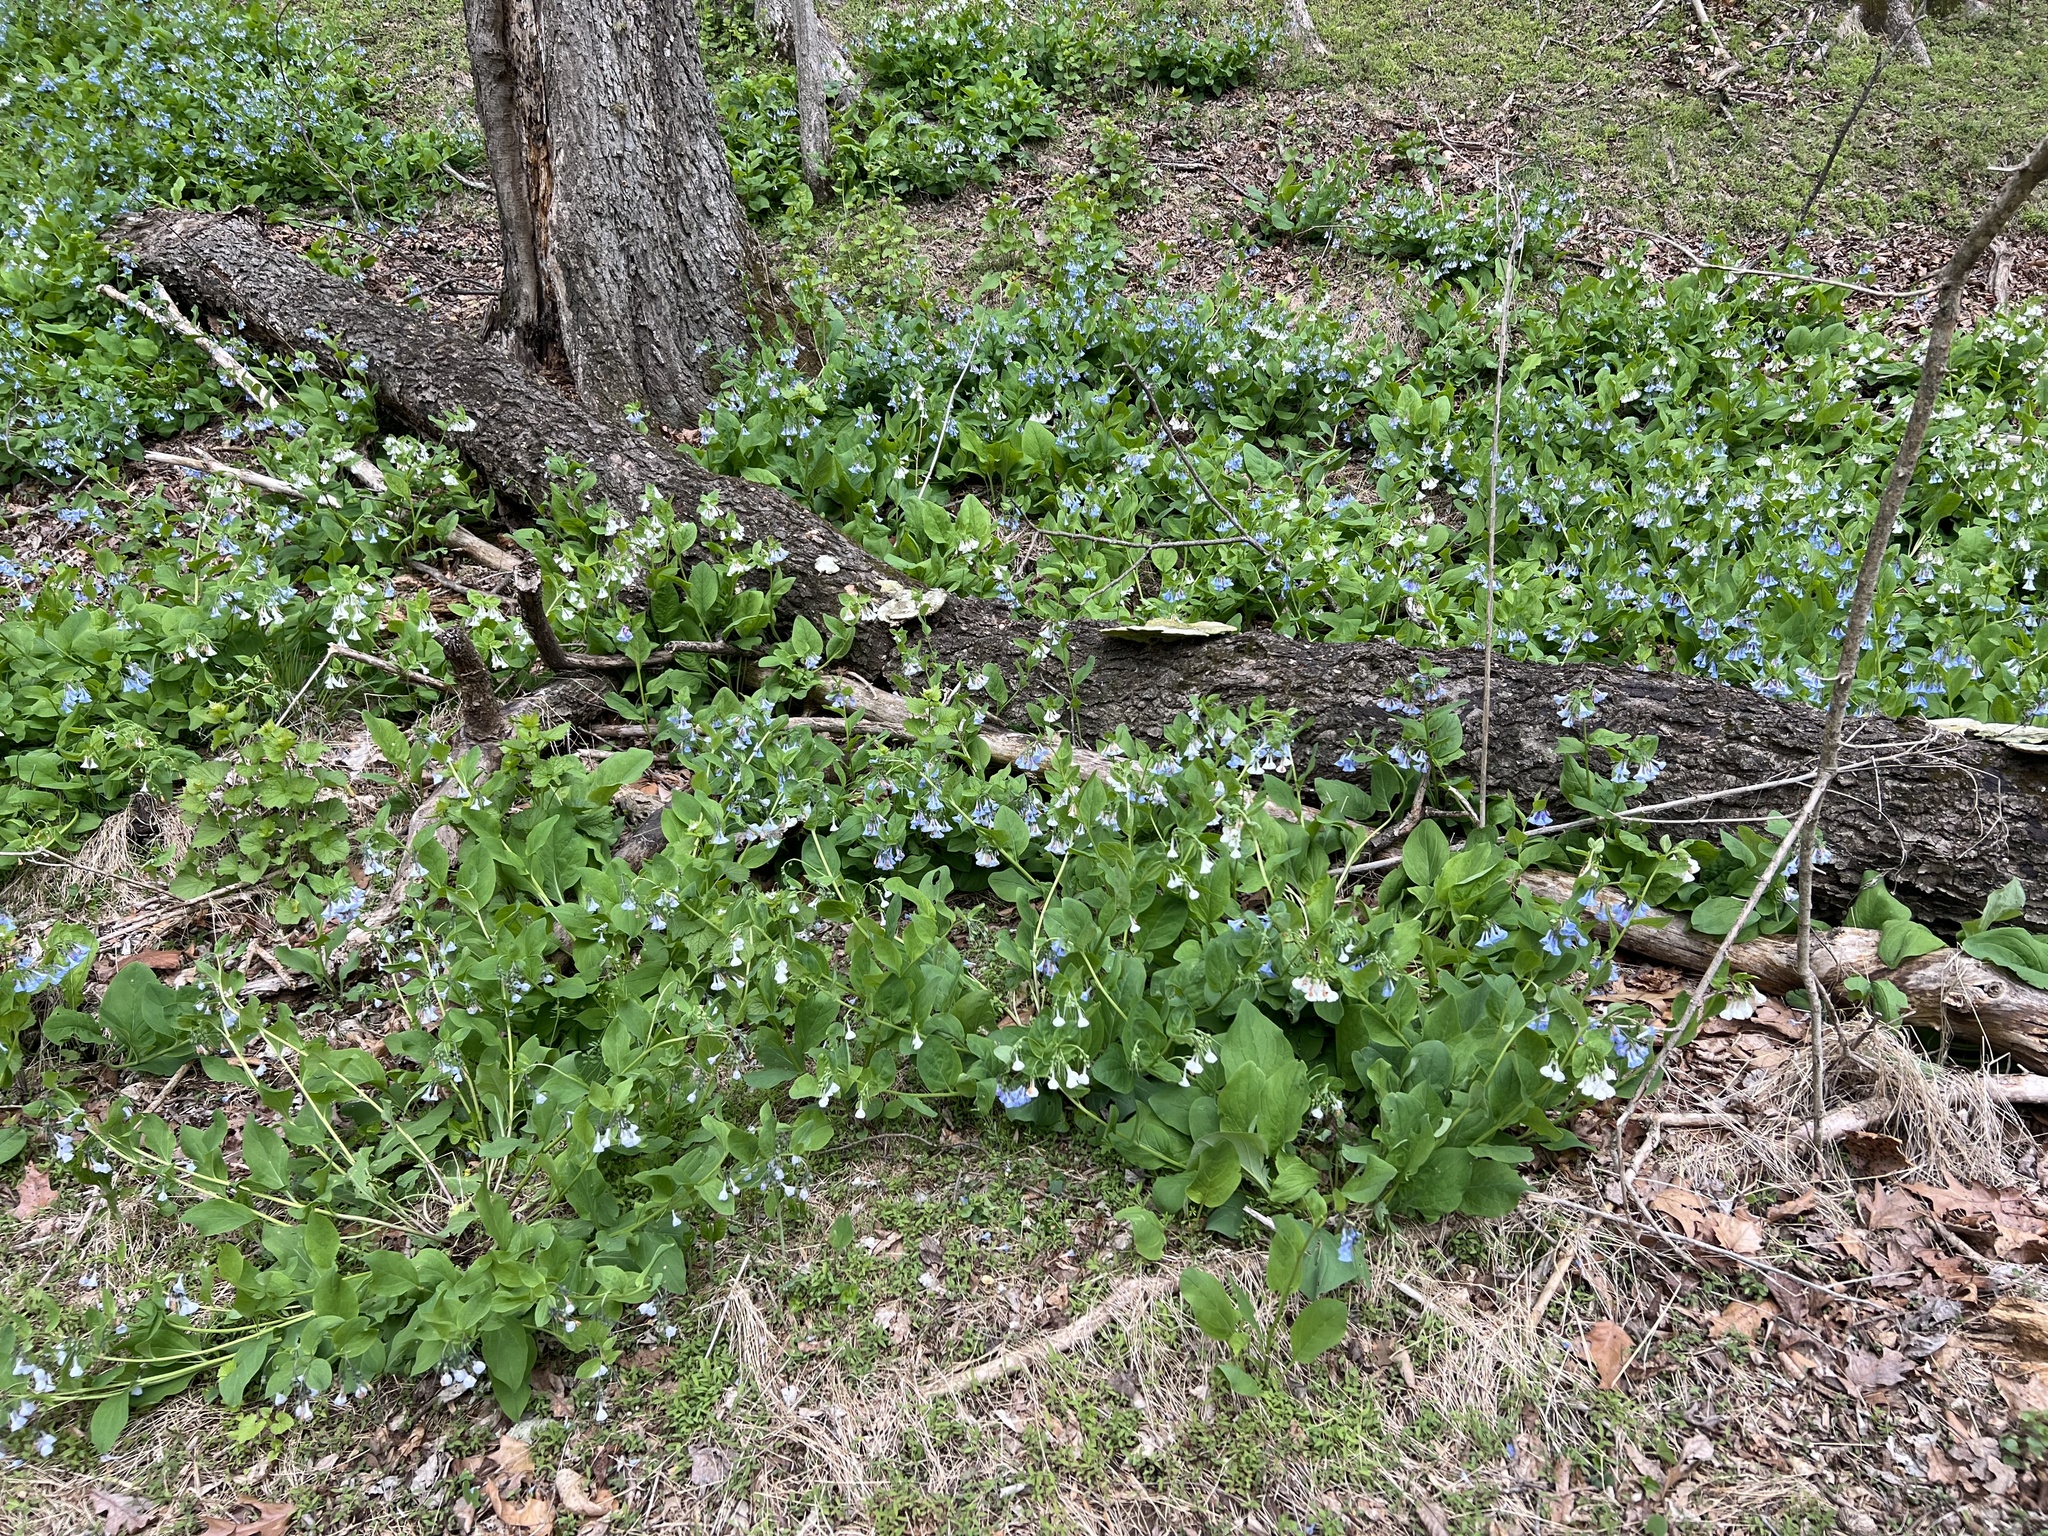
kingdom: Plantae
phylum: Tracheophyta
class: Magnoliopsida
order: Boraginales
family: Boraginaceae
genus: Mertensia
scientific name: Mertensia virginica
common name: Virginia bluebells
